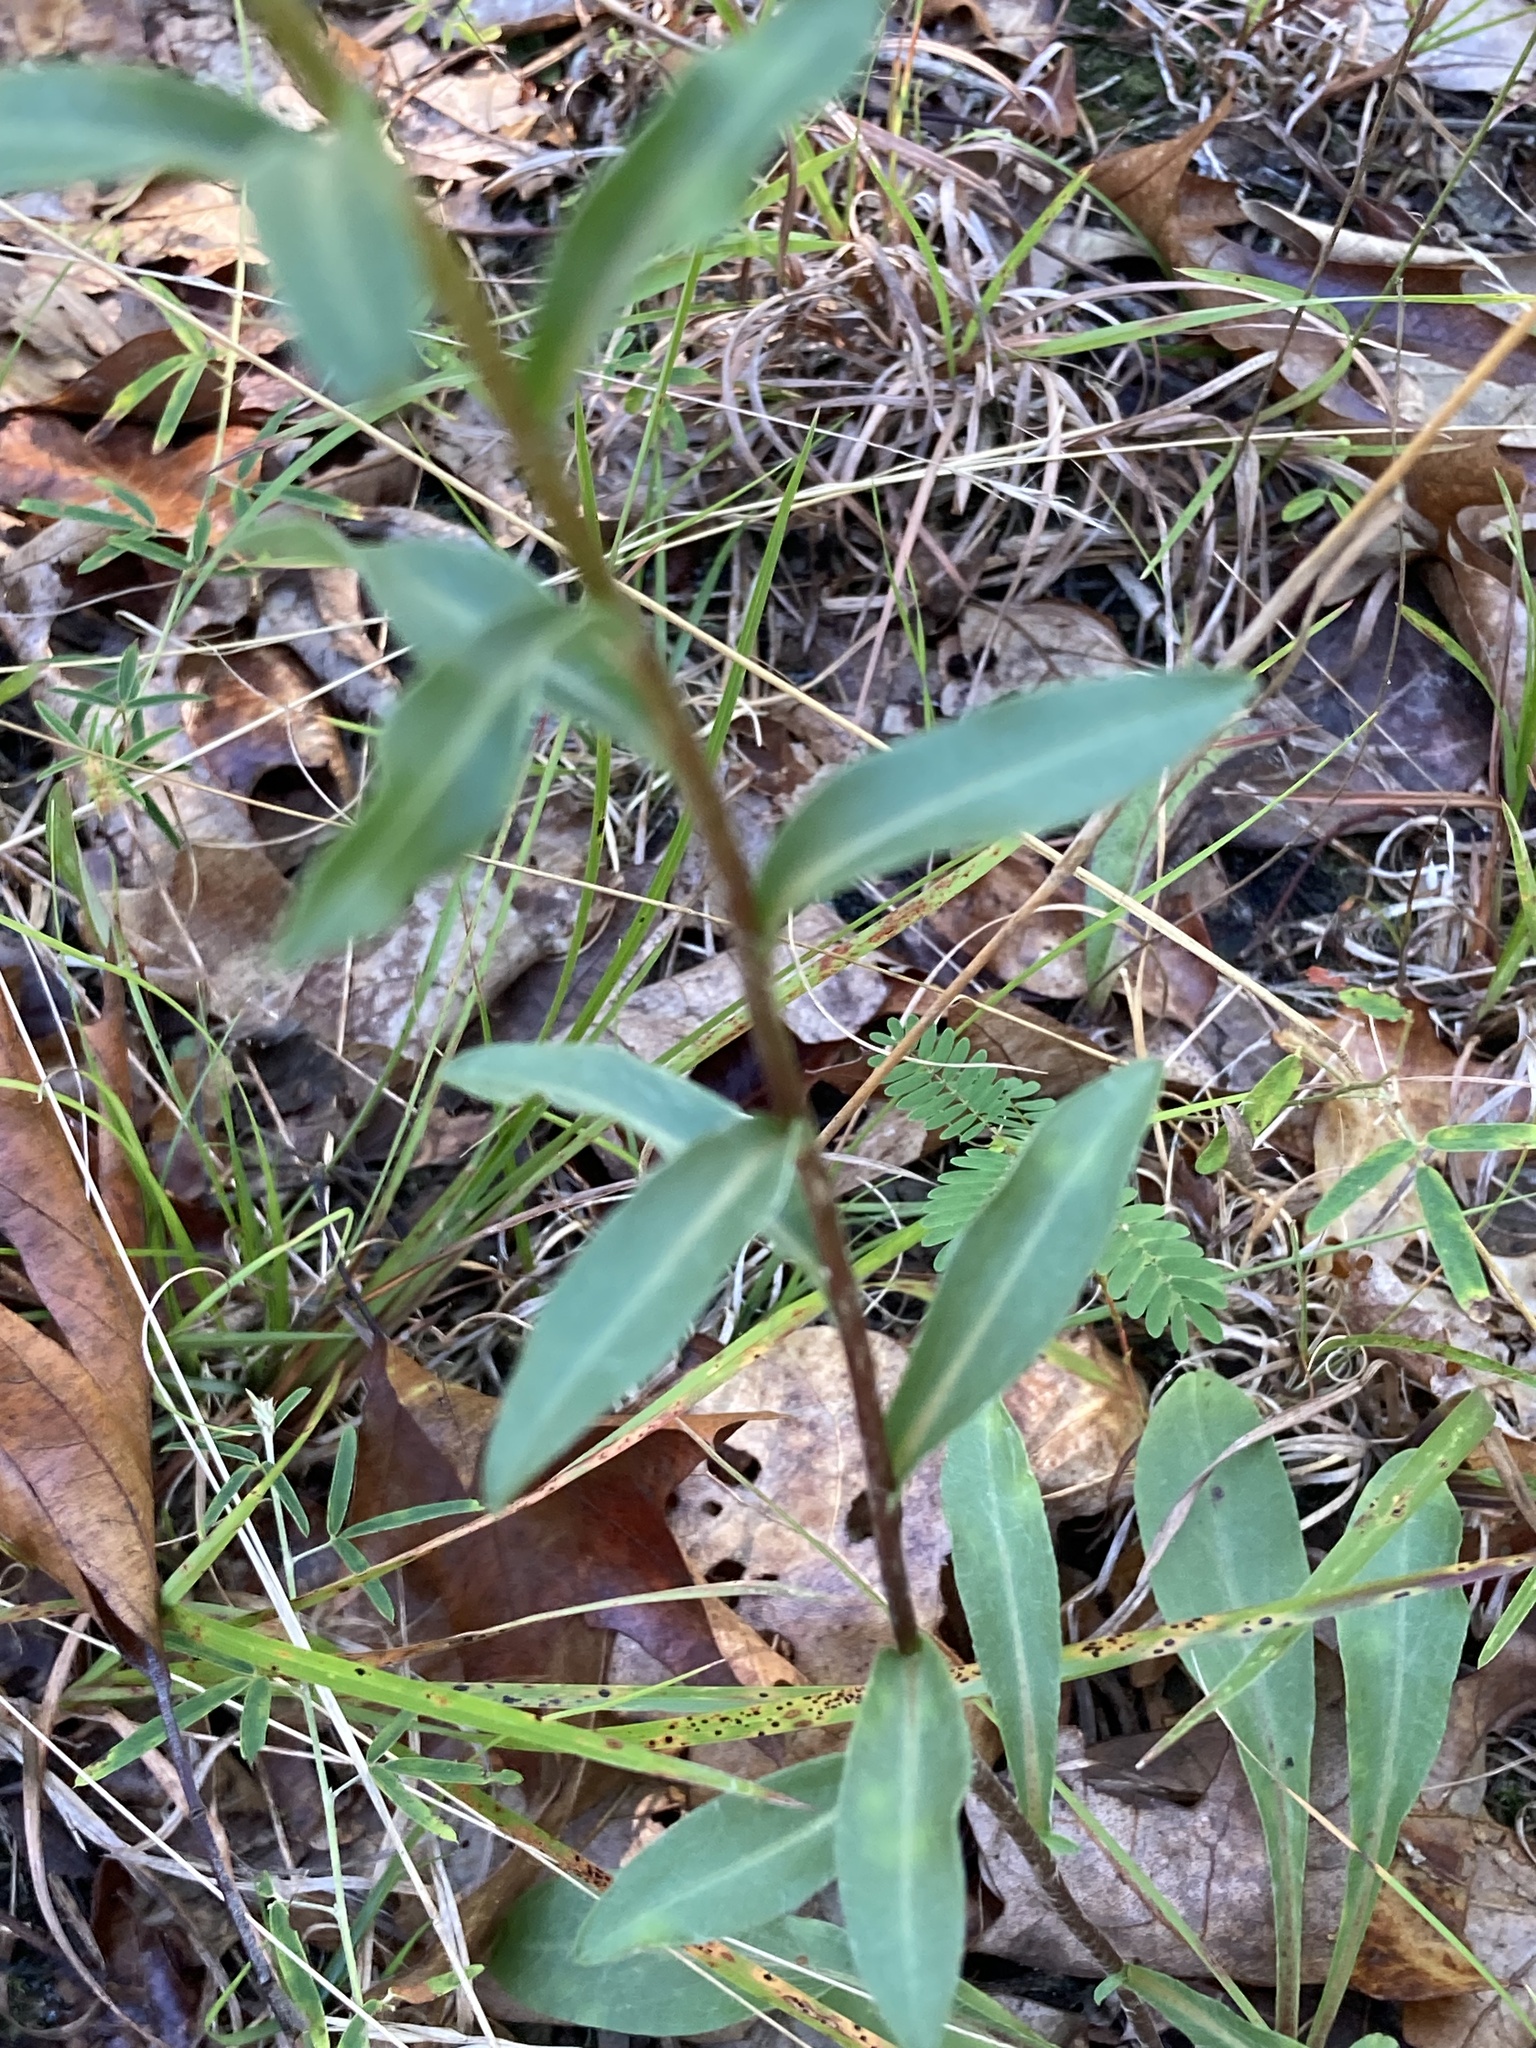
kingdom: Plantae
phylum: Tracheophyta
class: Magnoliopsida
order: Asterales
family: Asteraceae
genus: Chrysopsis
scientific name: Chrysopsis mariana
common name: Maryland golden-aster
